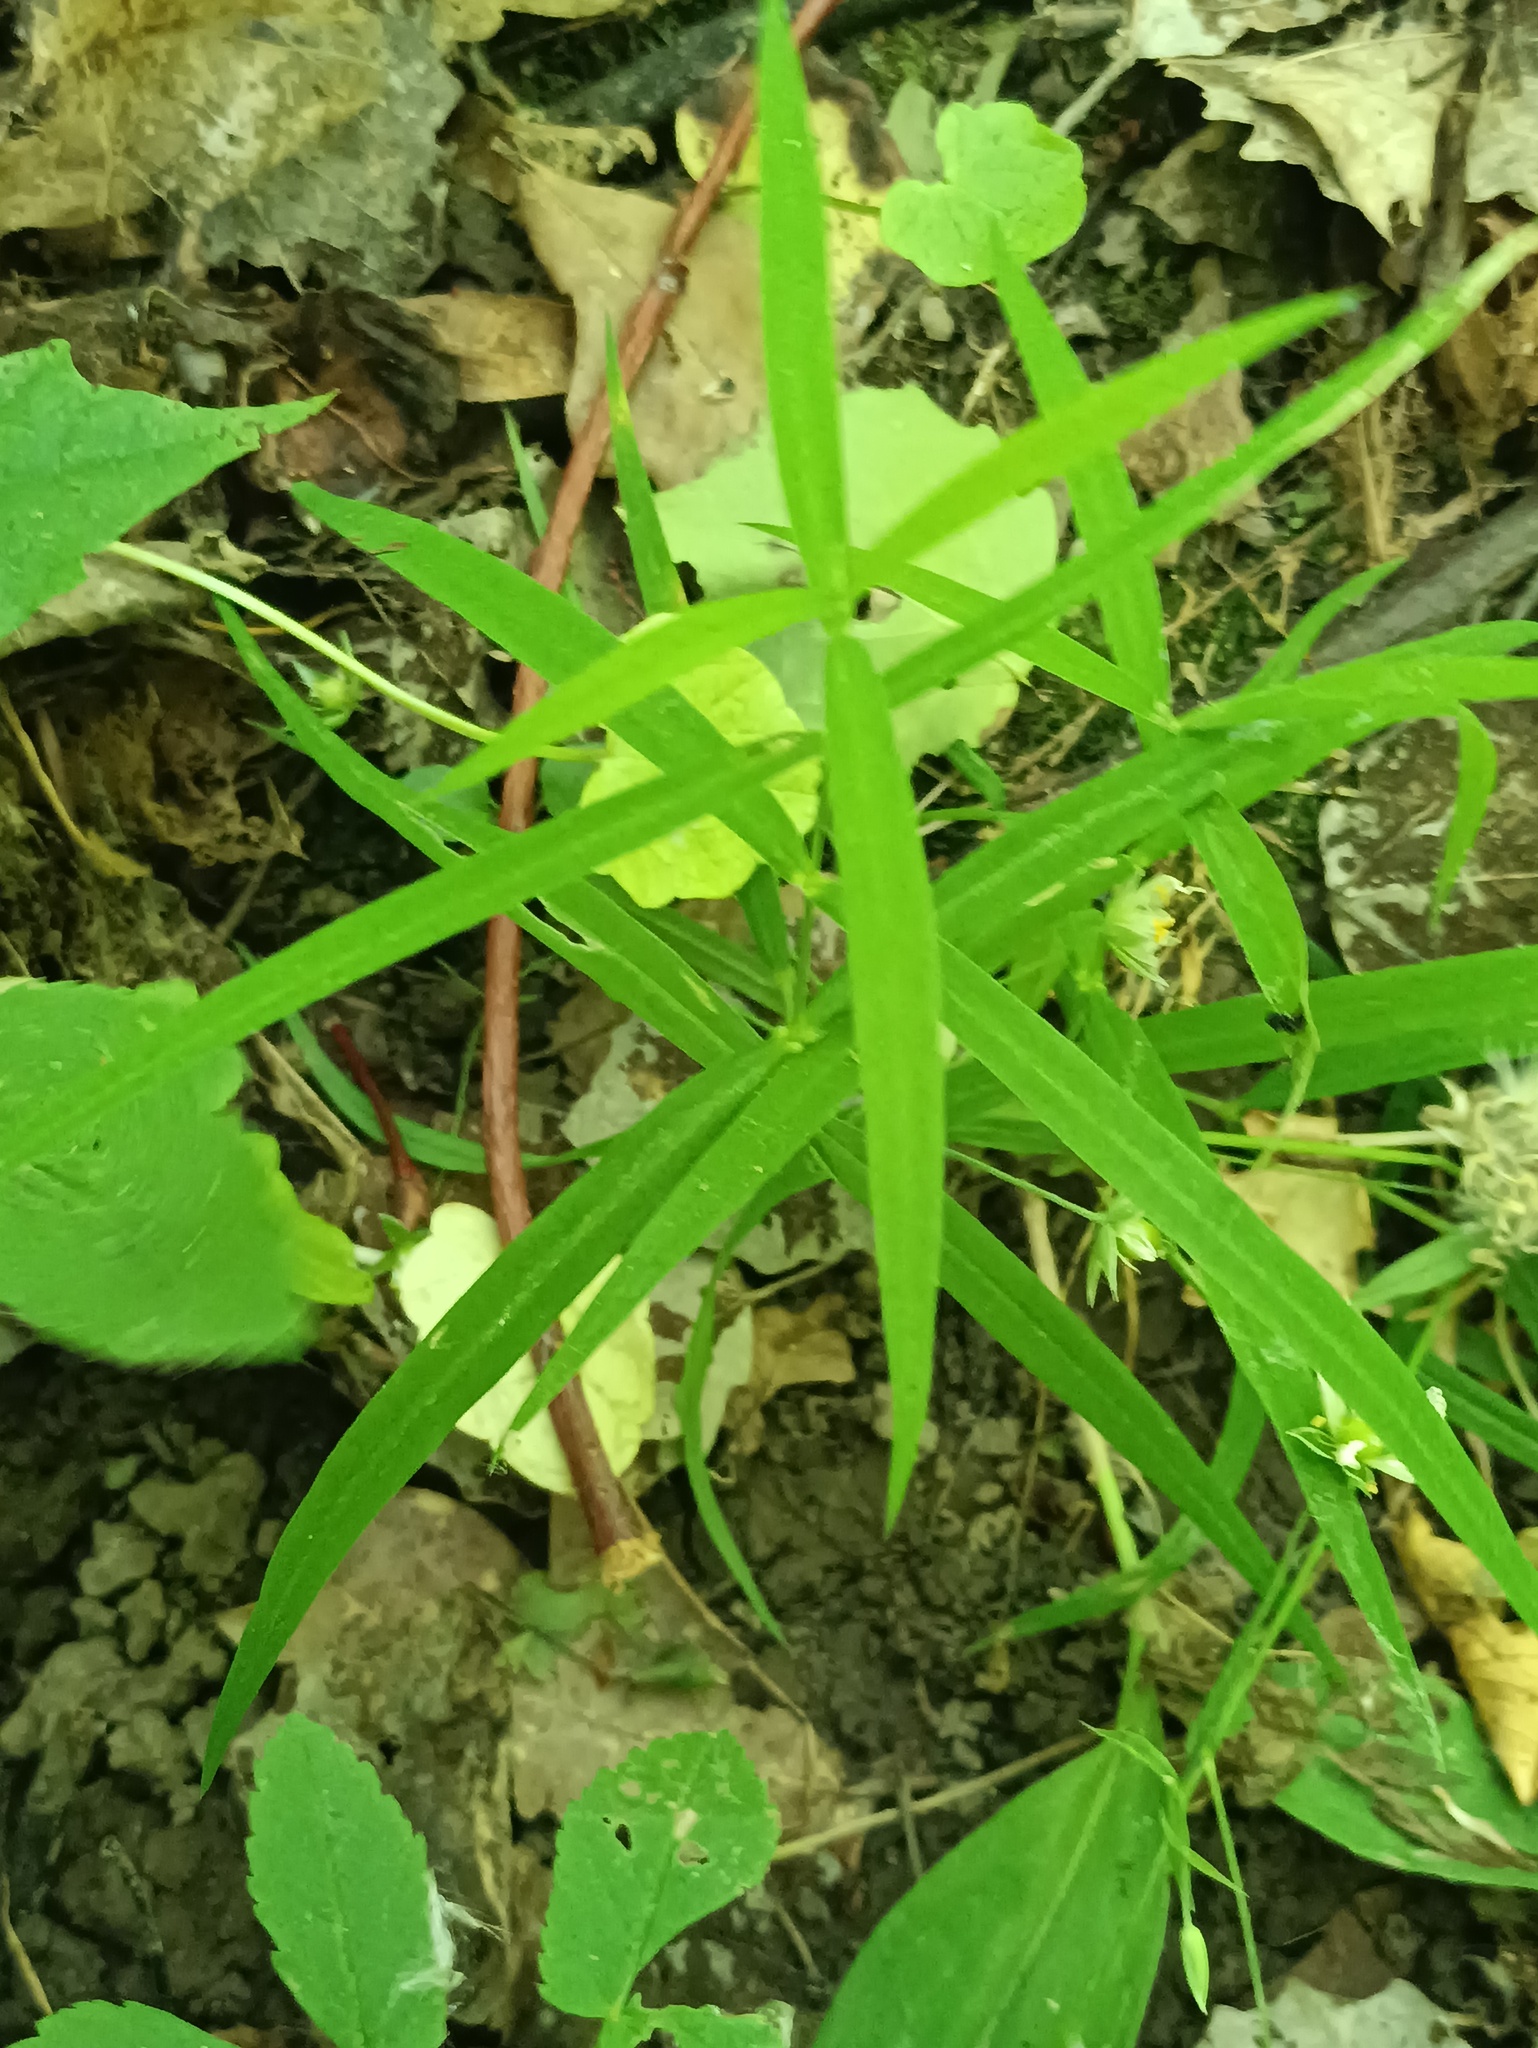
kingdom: Plantae
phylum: Tracheophyta
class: Magnoliopsida
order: Caryophyllales
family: Caryophyllaceae
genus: Rabelera
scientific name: Rabelera holostea
